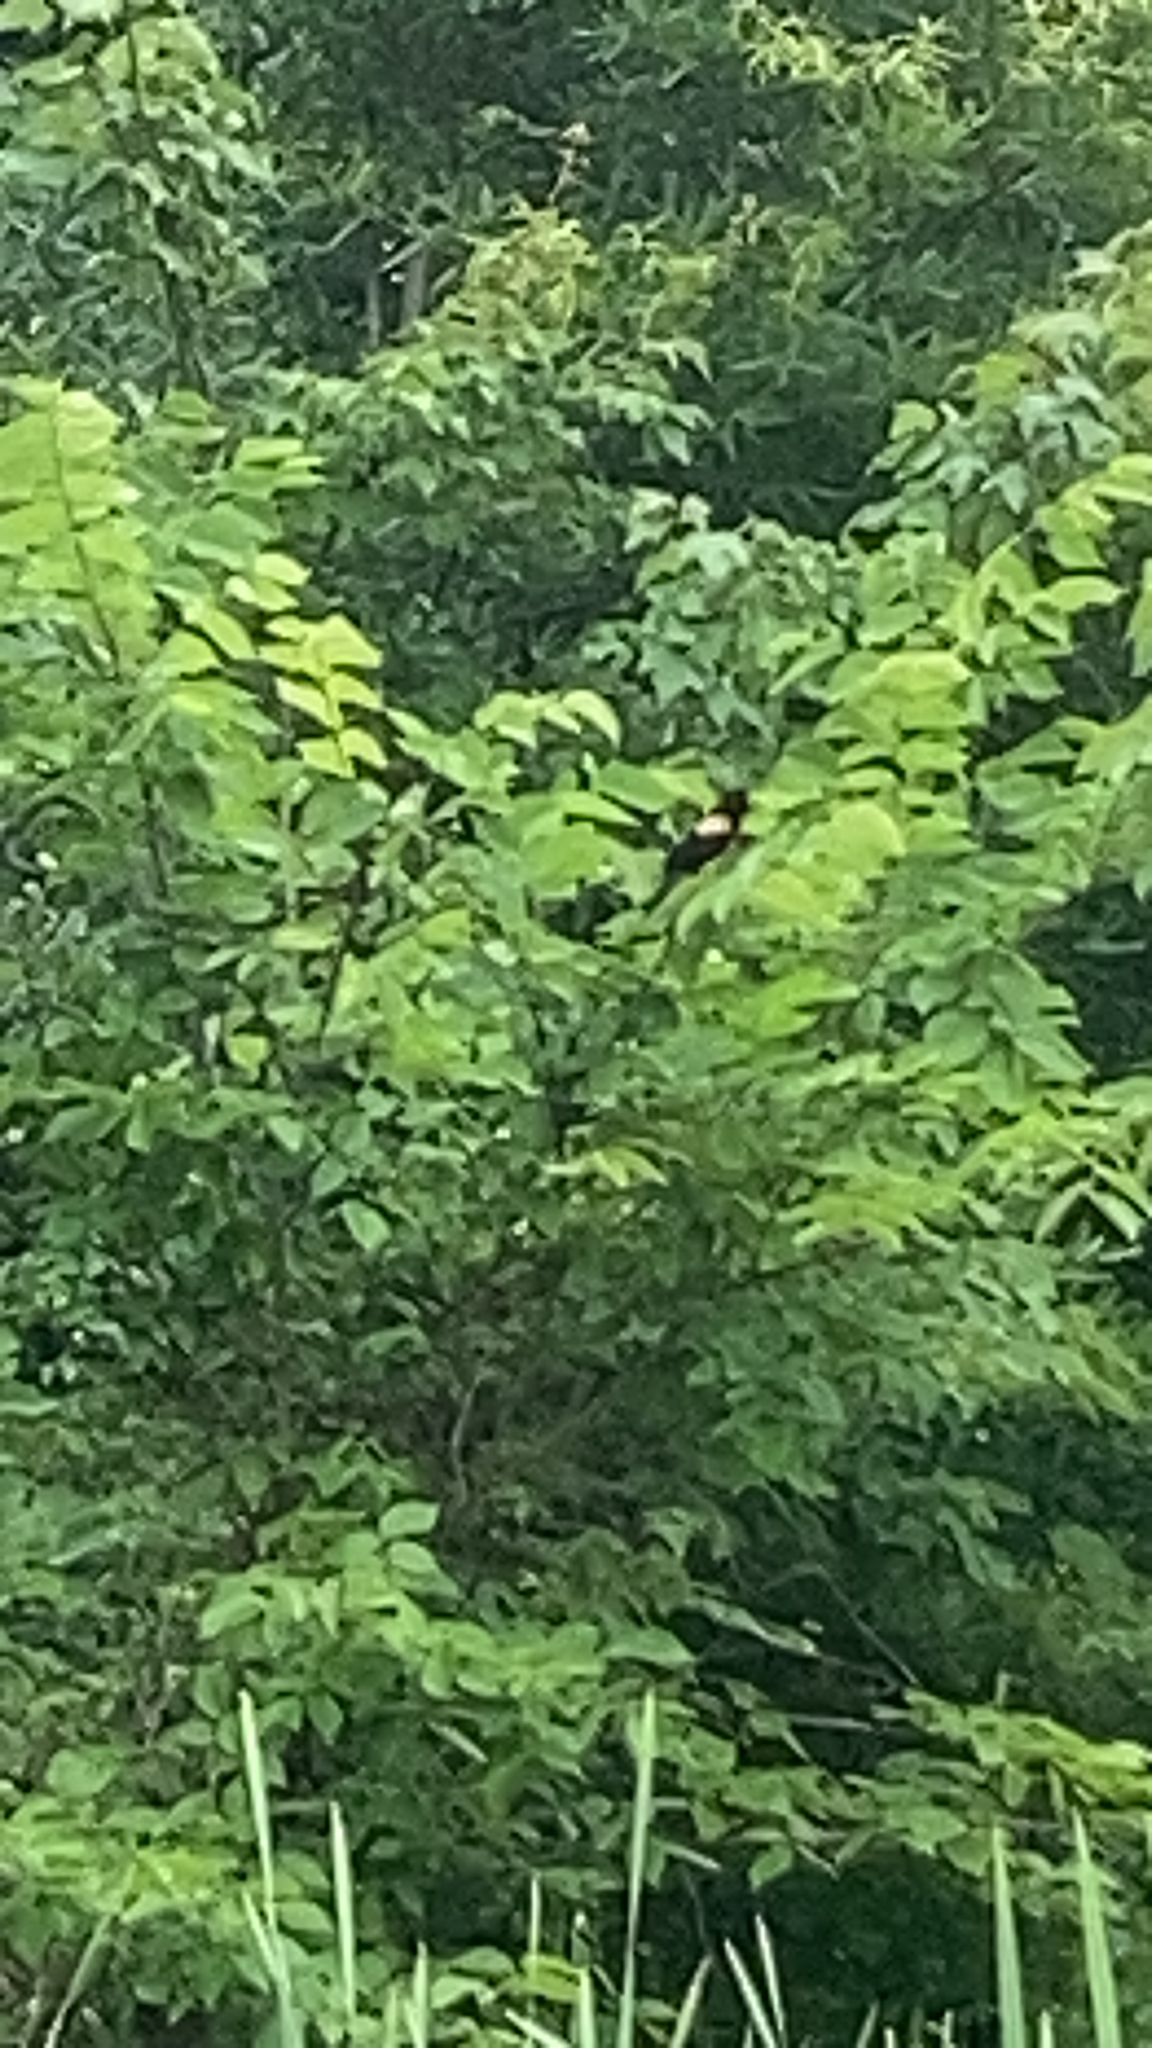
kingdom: Animalia
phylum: Chordata
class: Aves
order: Passeriformes
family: Icteridae
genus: Agelaius
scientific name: Agelaius phoeniceus
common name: Red-winged blackbird
